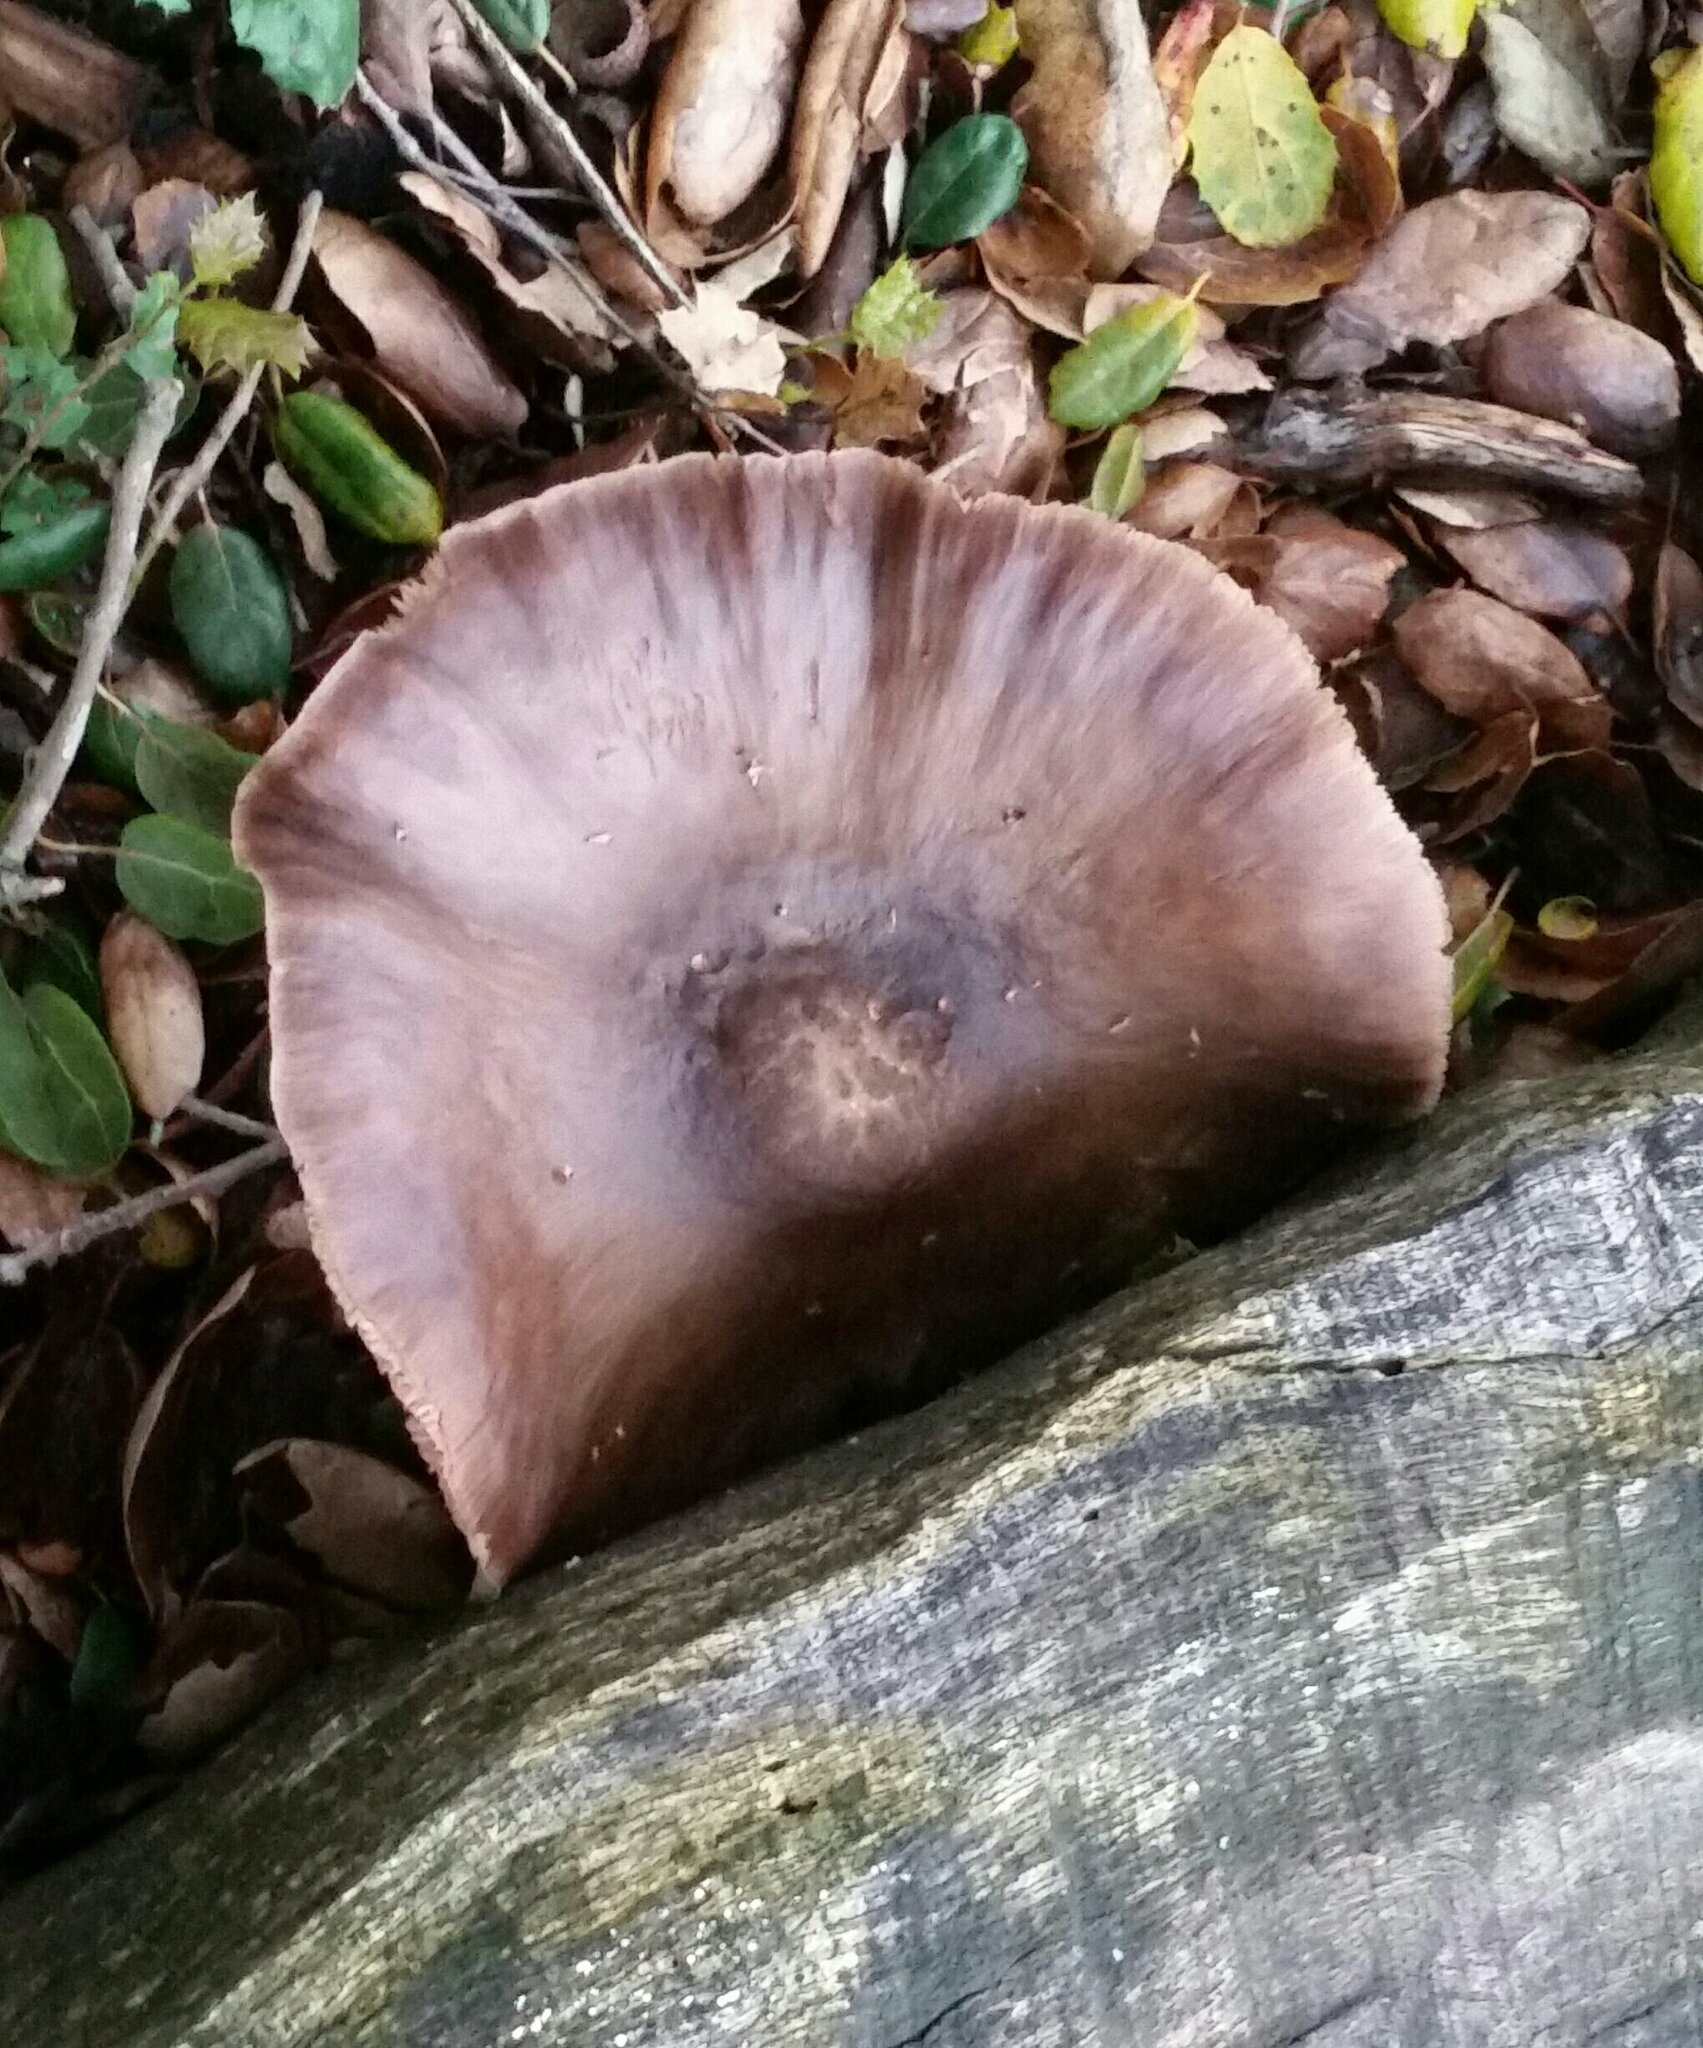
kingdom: Fungi
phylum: Basidiomycota
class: Agaricomycetes
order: Agaricales
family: Pluteaceae
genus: Pluteus
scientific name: Pluteus exilis
